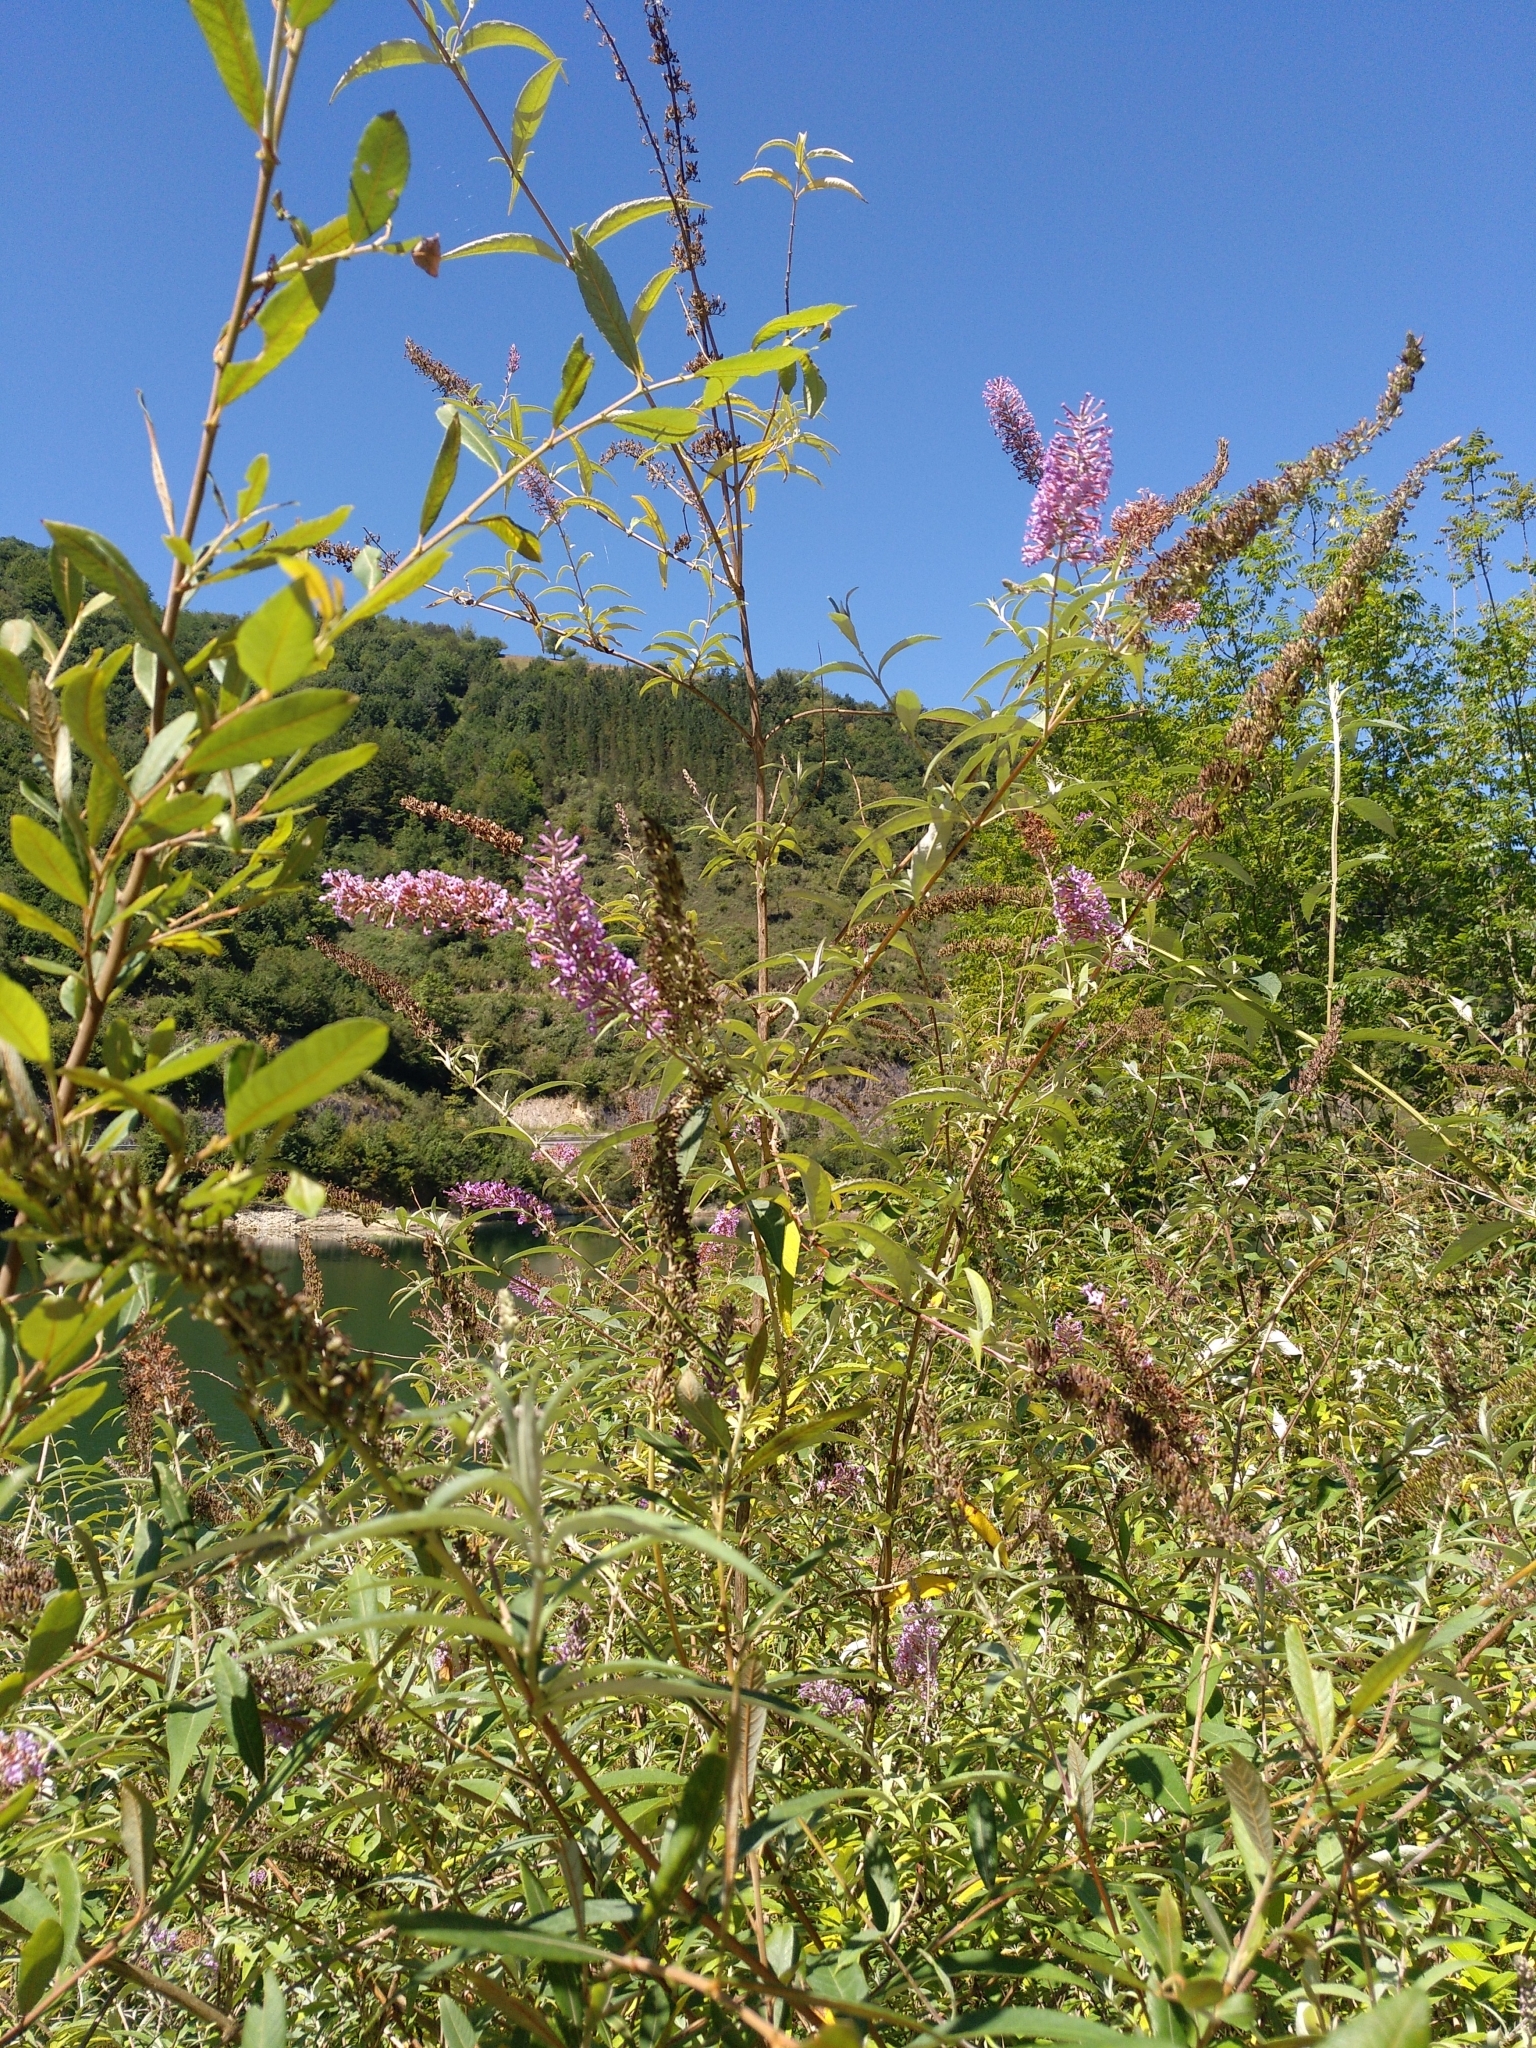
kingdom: Plantae
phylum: Tracheophyta
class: Magnoliopsida
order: Lamiales
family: Scrophulariaceae
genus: Buddleja
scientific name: Buddleja davidii
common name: Butterfly-bush
